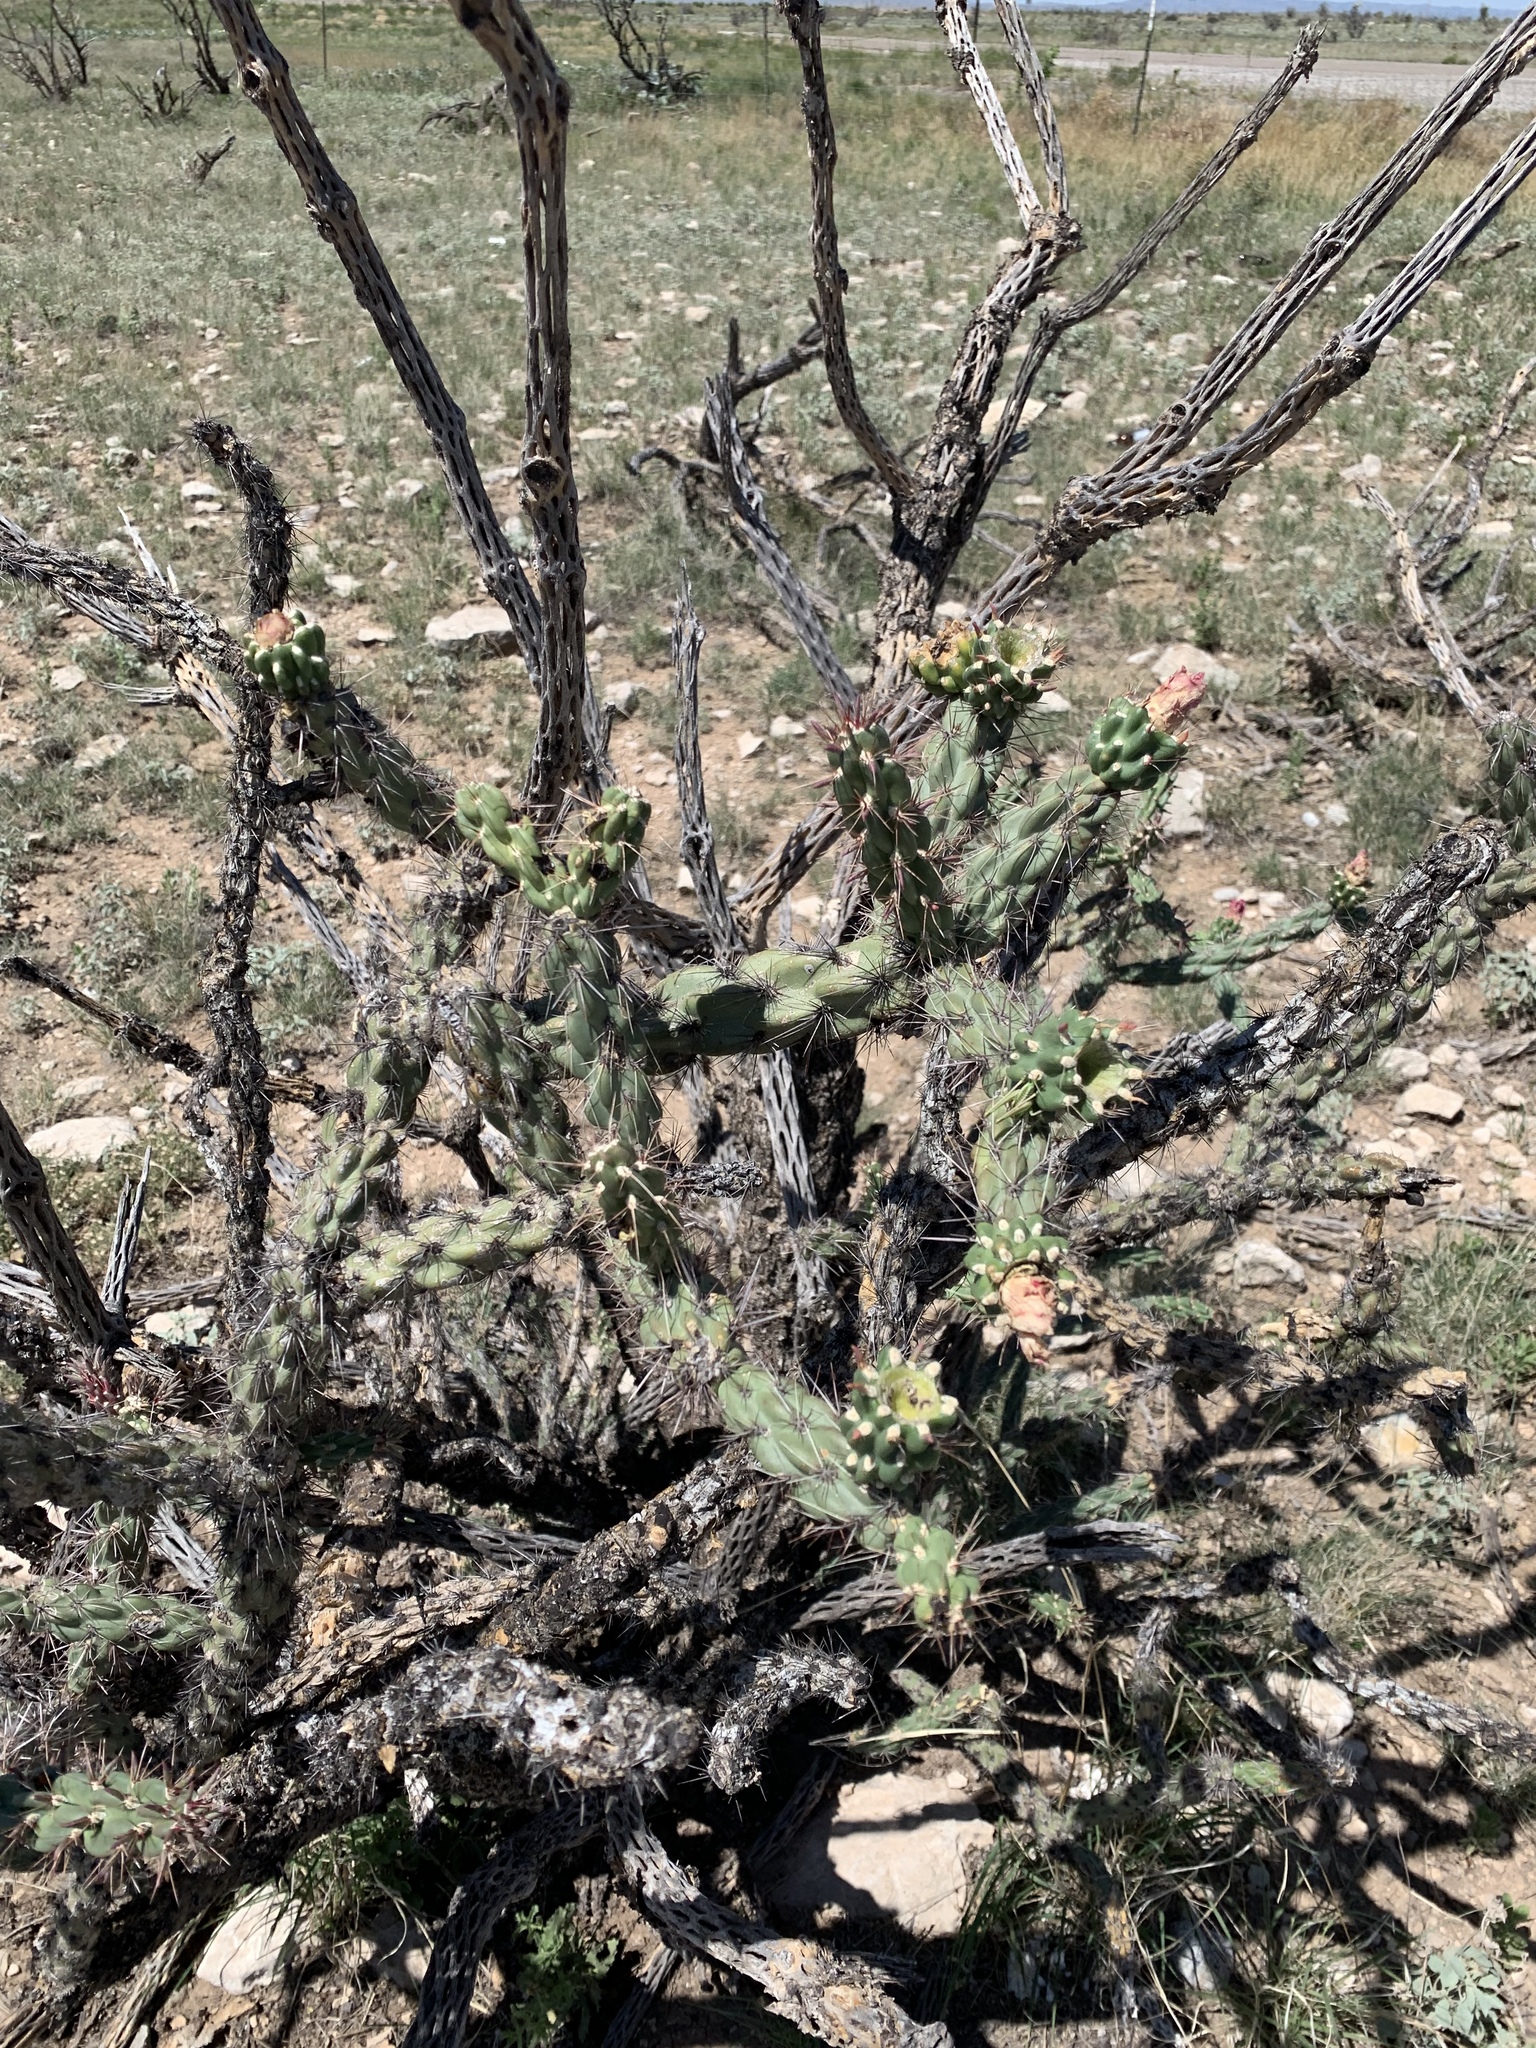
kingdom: Plantae
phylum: Tracheophyta
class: Magnoliopsida
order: Caryophyllales
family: Cactaceae
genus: Cylindropuntia
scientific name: Cylindropuntia imbricata
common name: Candelabrum cactus
